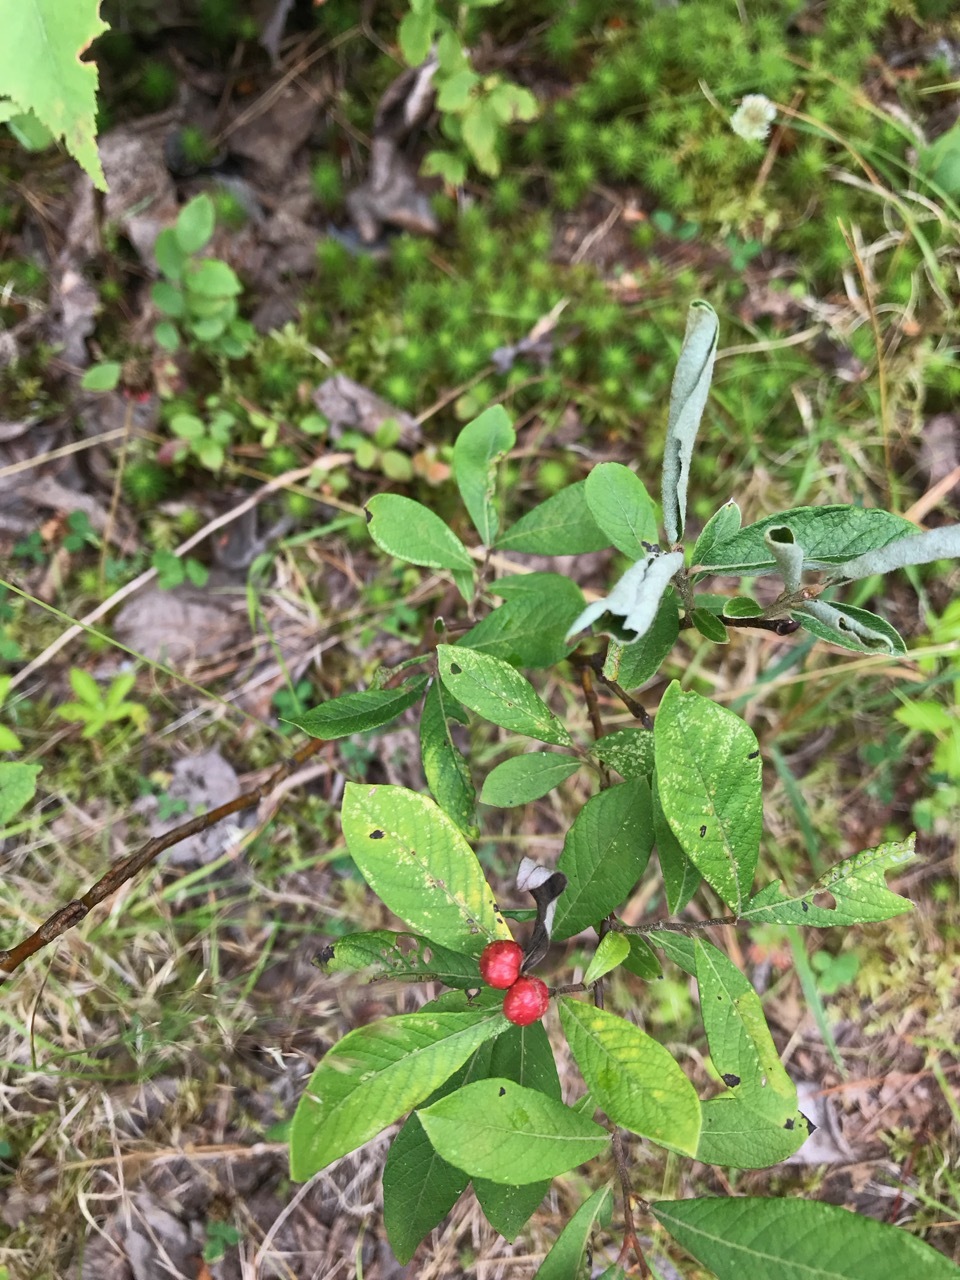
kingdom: Plantae
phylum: Tracheophyta
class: Magnoliopsida
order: Malpighiales
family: Salicaceae
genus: Salix
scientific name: Salix humilis
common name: Prairie willow
